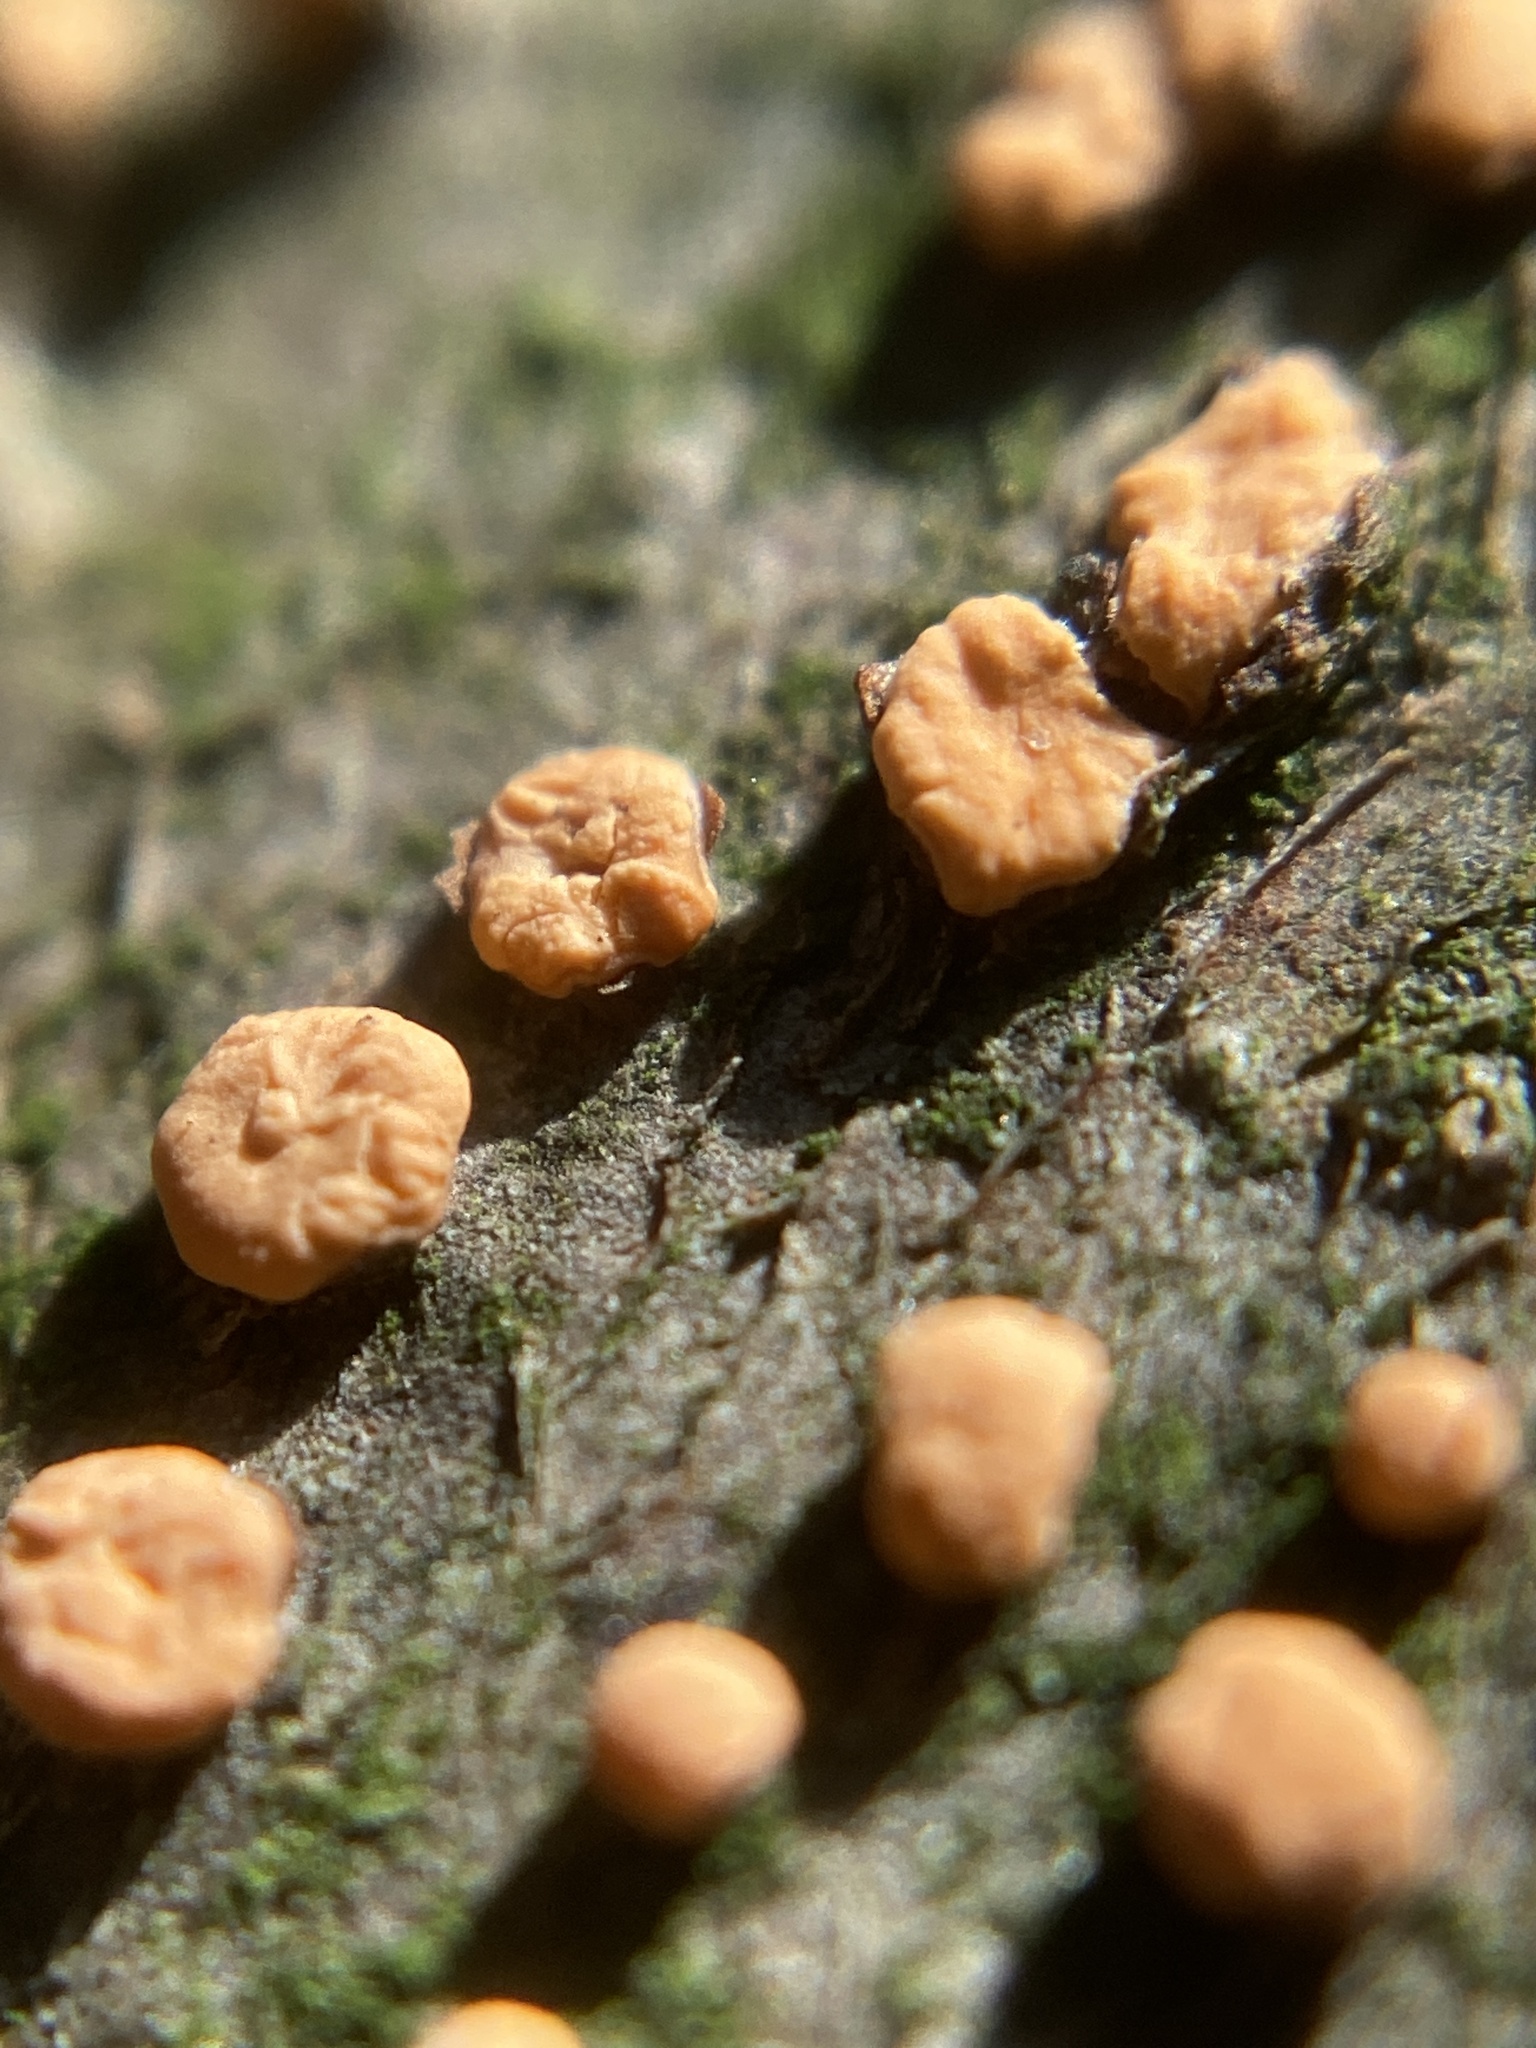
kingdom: Fungi
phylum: Ascomycota
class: Sordariomycetes
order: Hypocreales
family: Nectriaceae
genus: Nectria
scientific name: Nectria cinnabarina
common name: Coral spot
